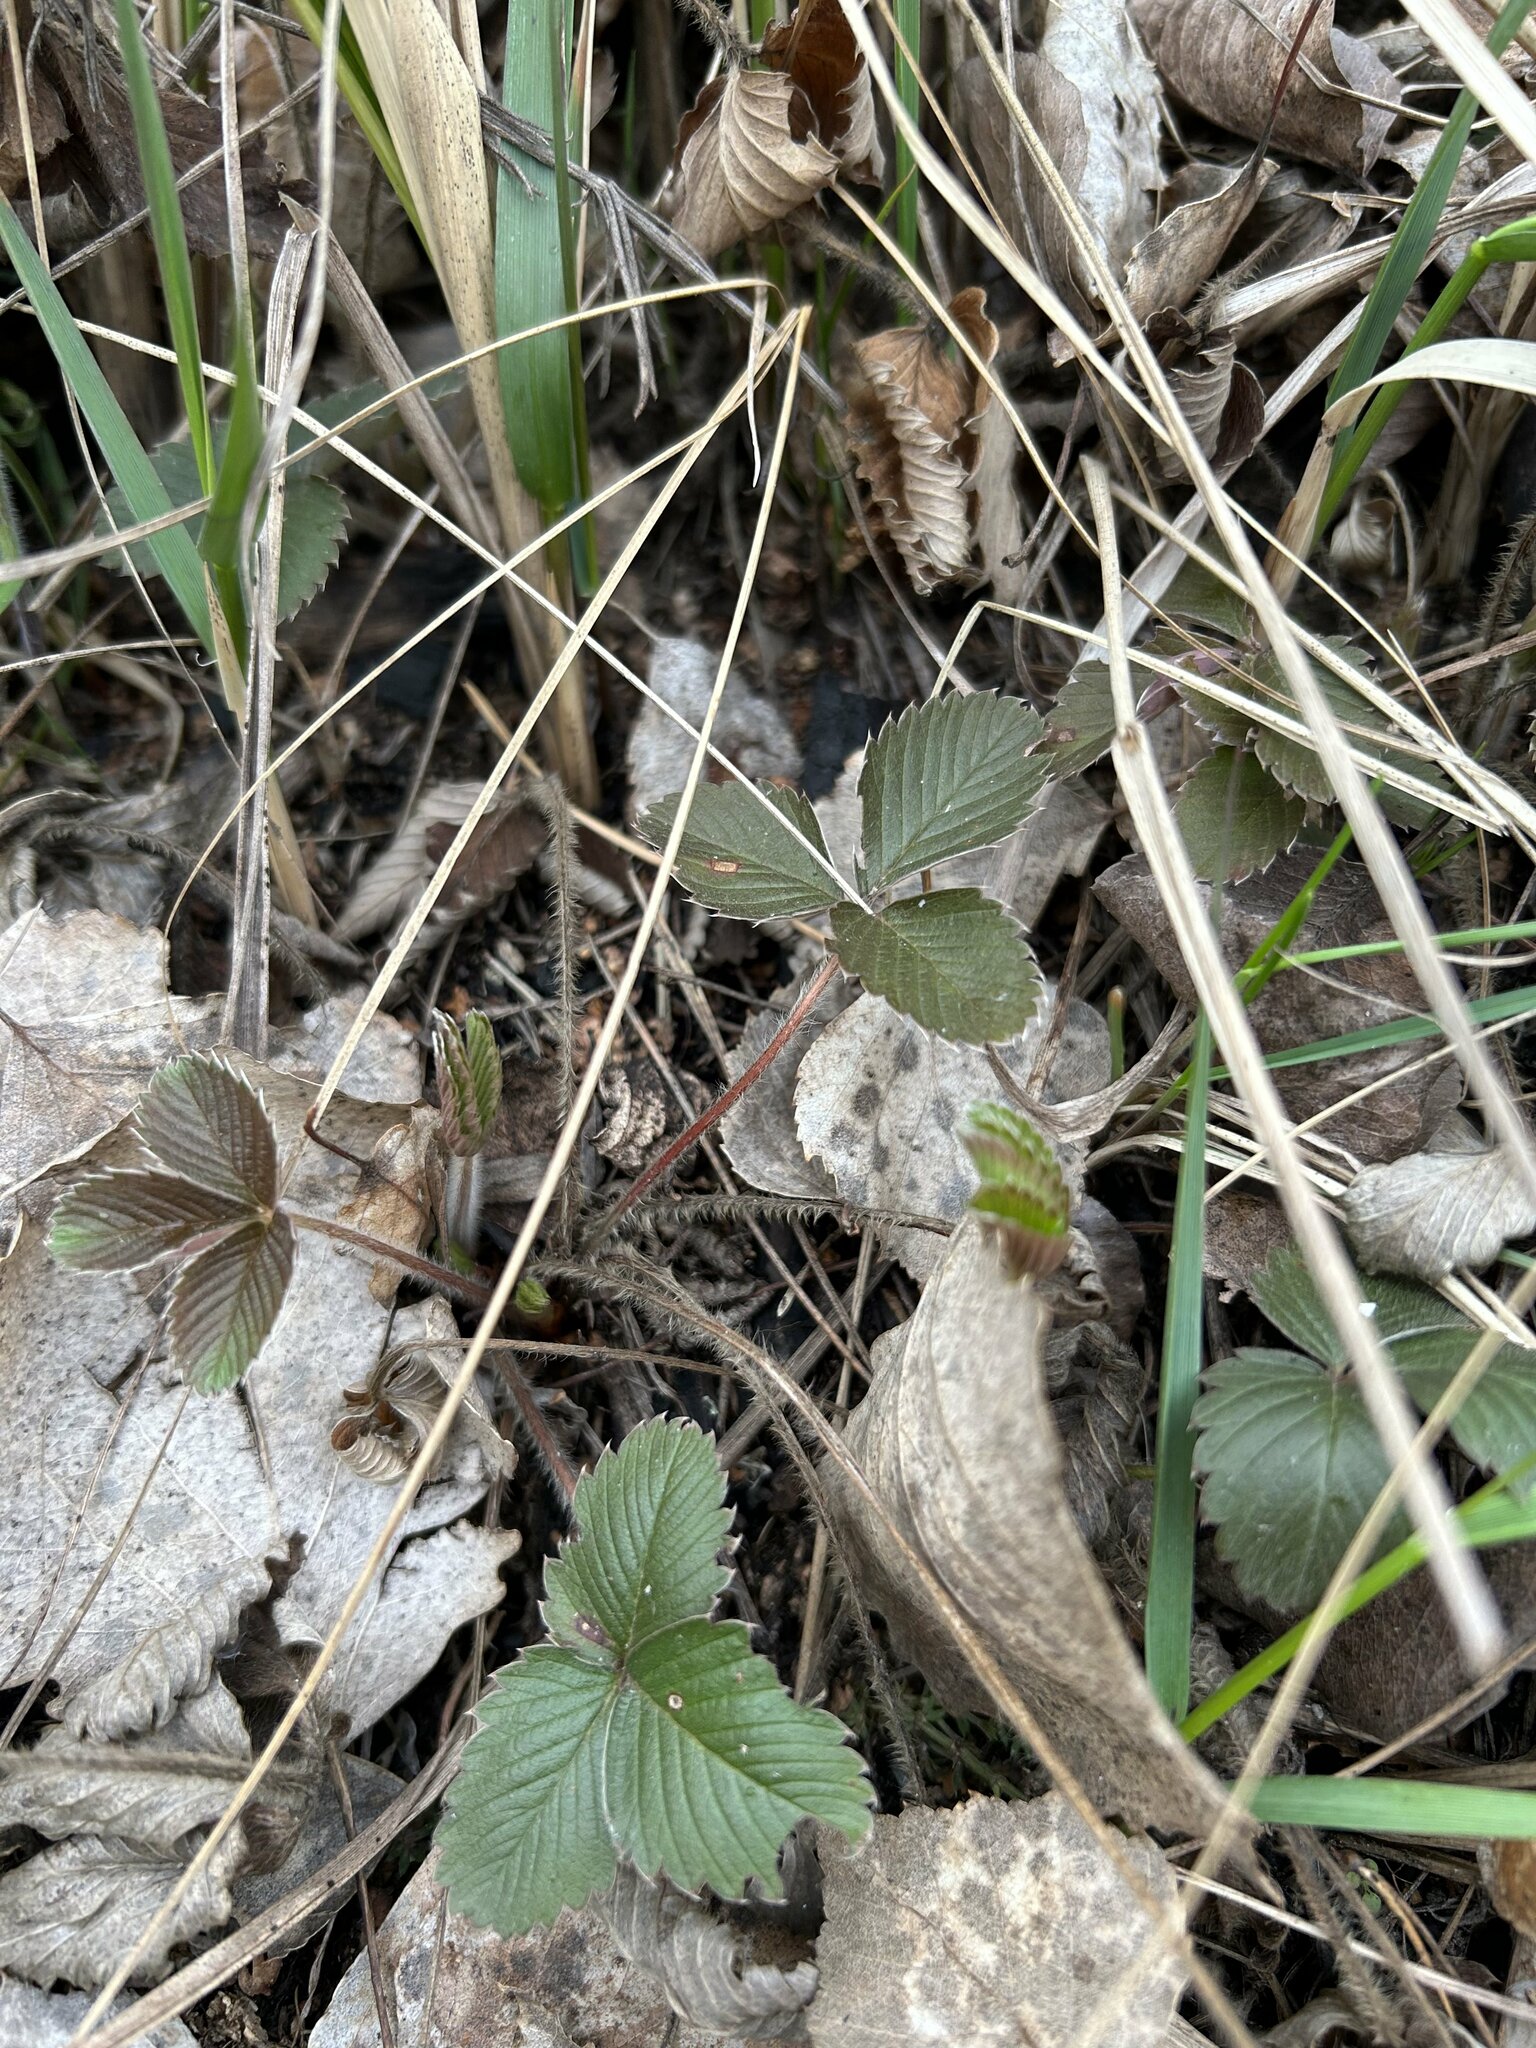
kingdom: Plantae
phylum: Tracheophyta
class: Magnoliopsida
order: Rosales
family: Rosaceae
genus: Fragaria
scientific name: Fragaria viridis
